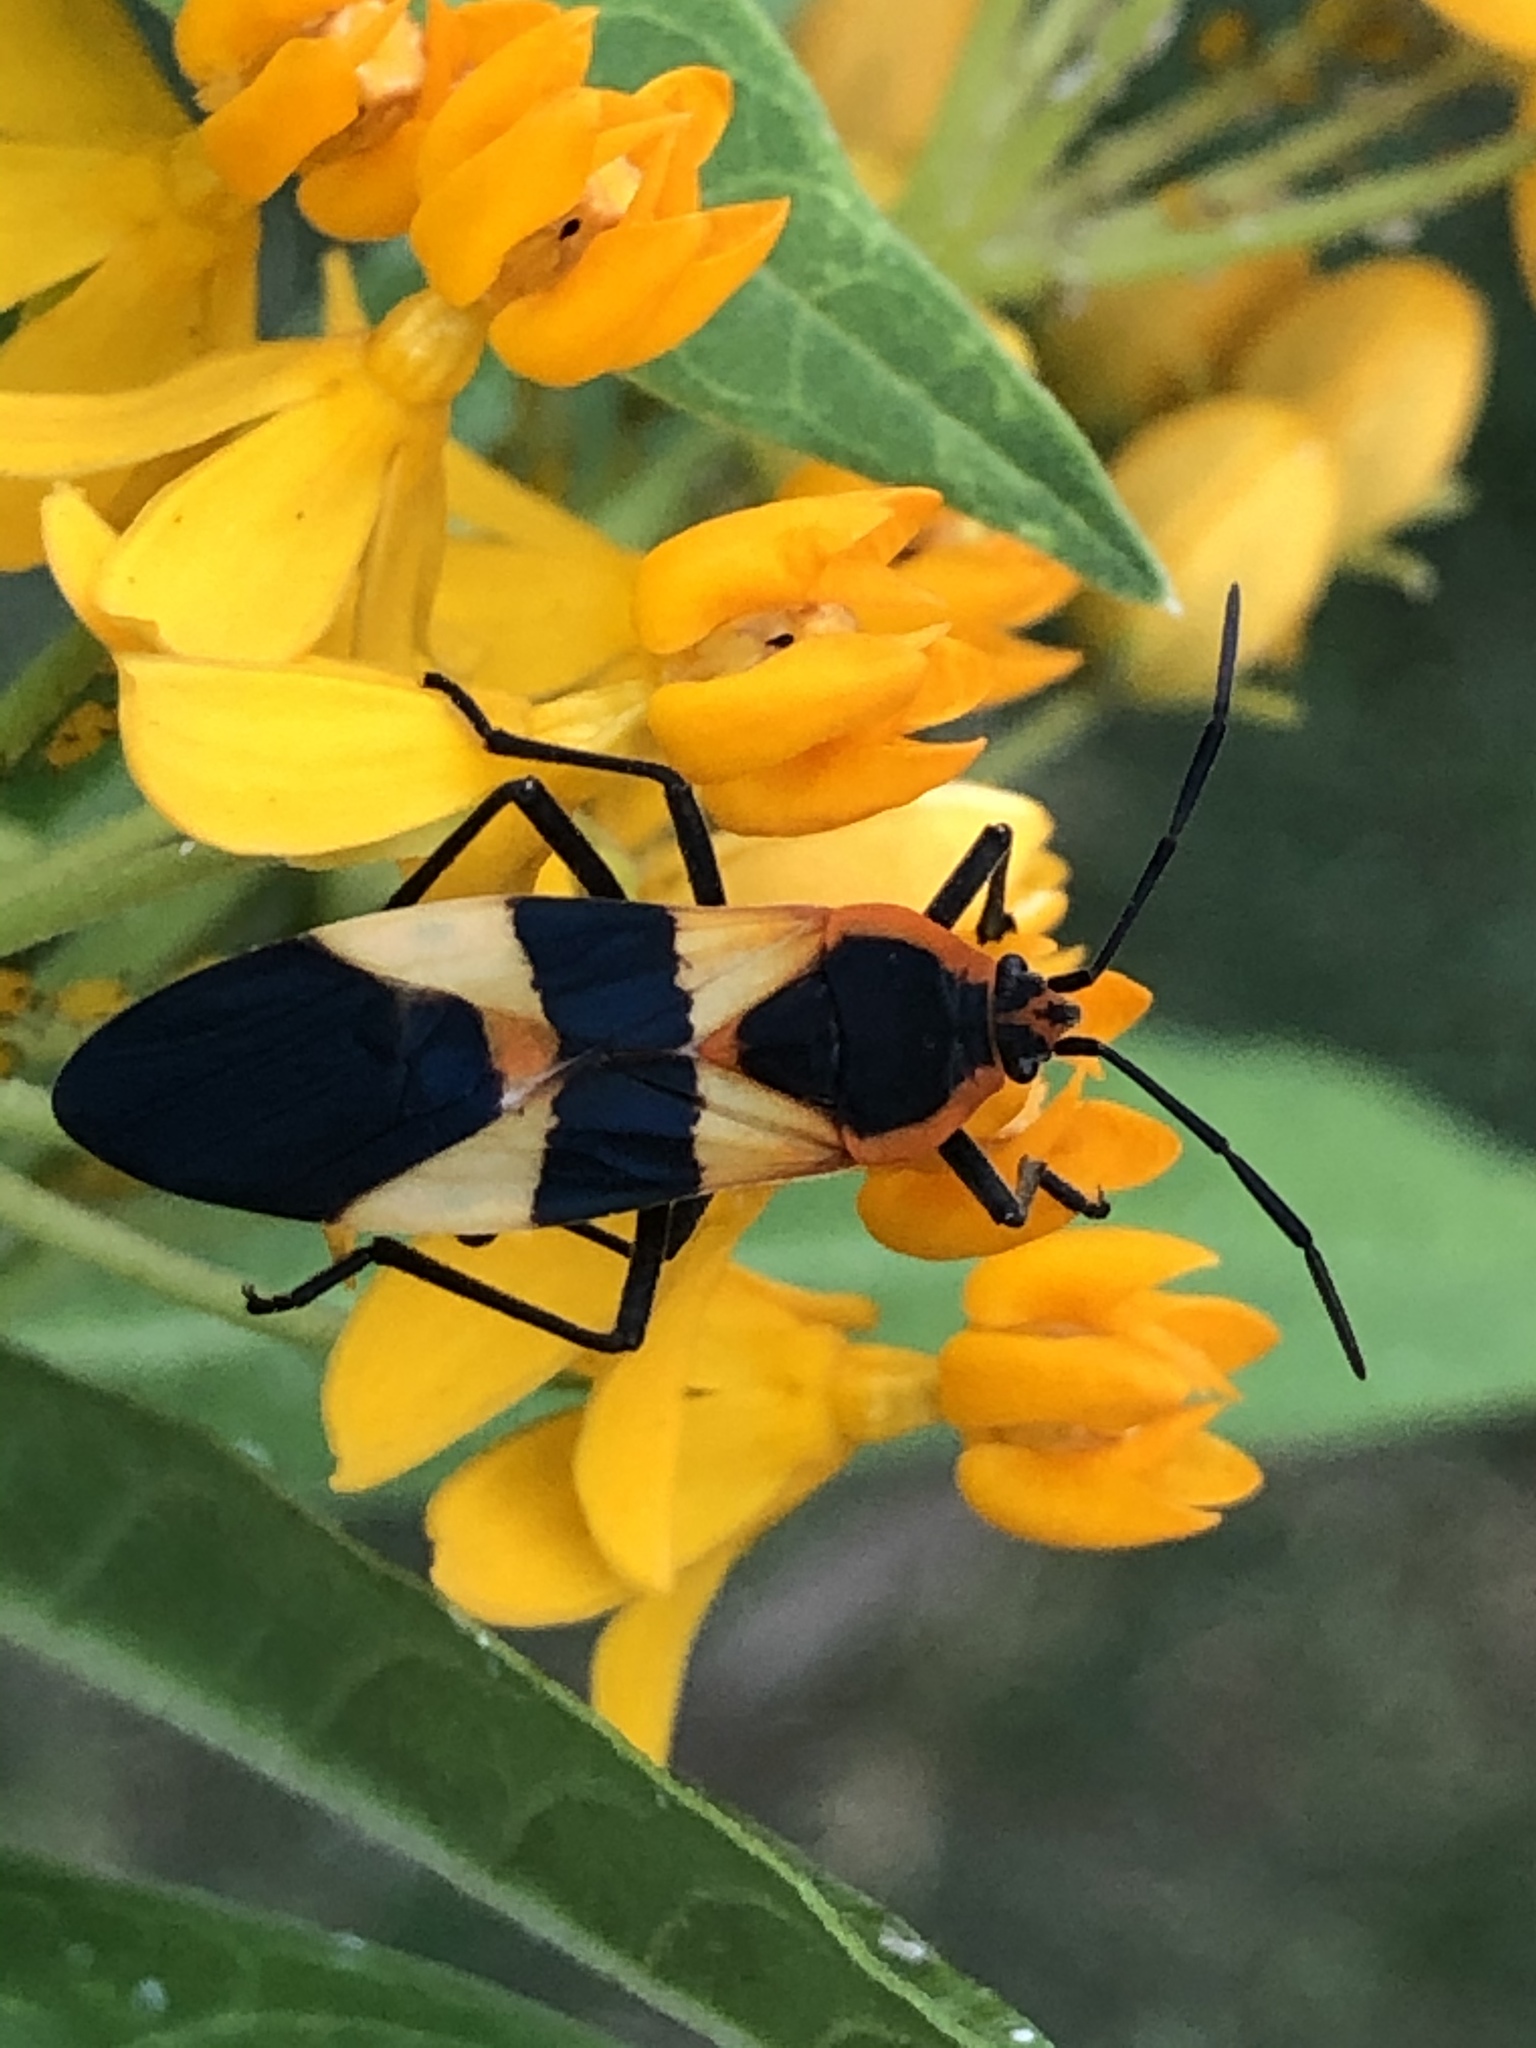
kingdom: Animalia
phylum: Arthropoda
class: Insecta
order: Hemiptera
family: Lygaeidae
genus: Oncopeltus
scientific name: Oncopeltus fasciatus
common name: Large milkweed bug
